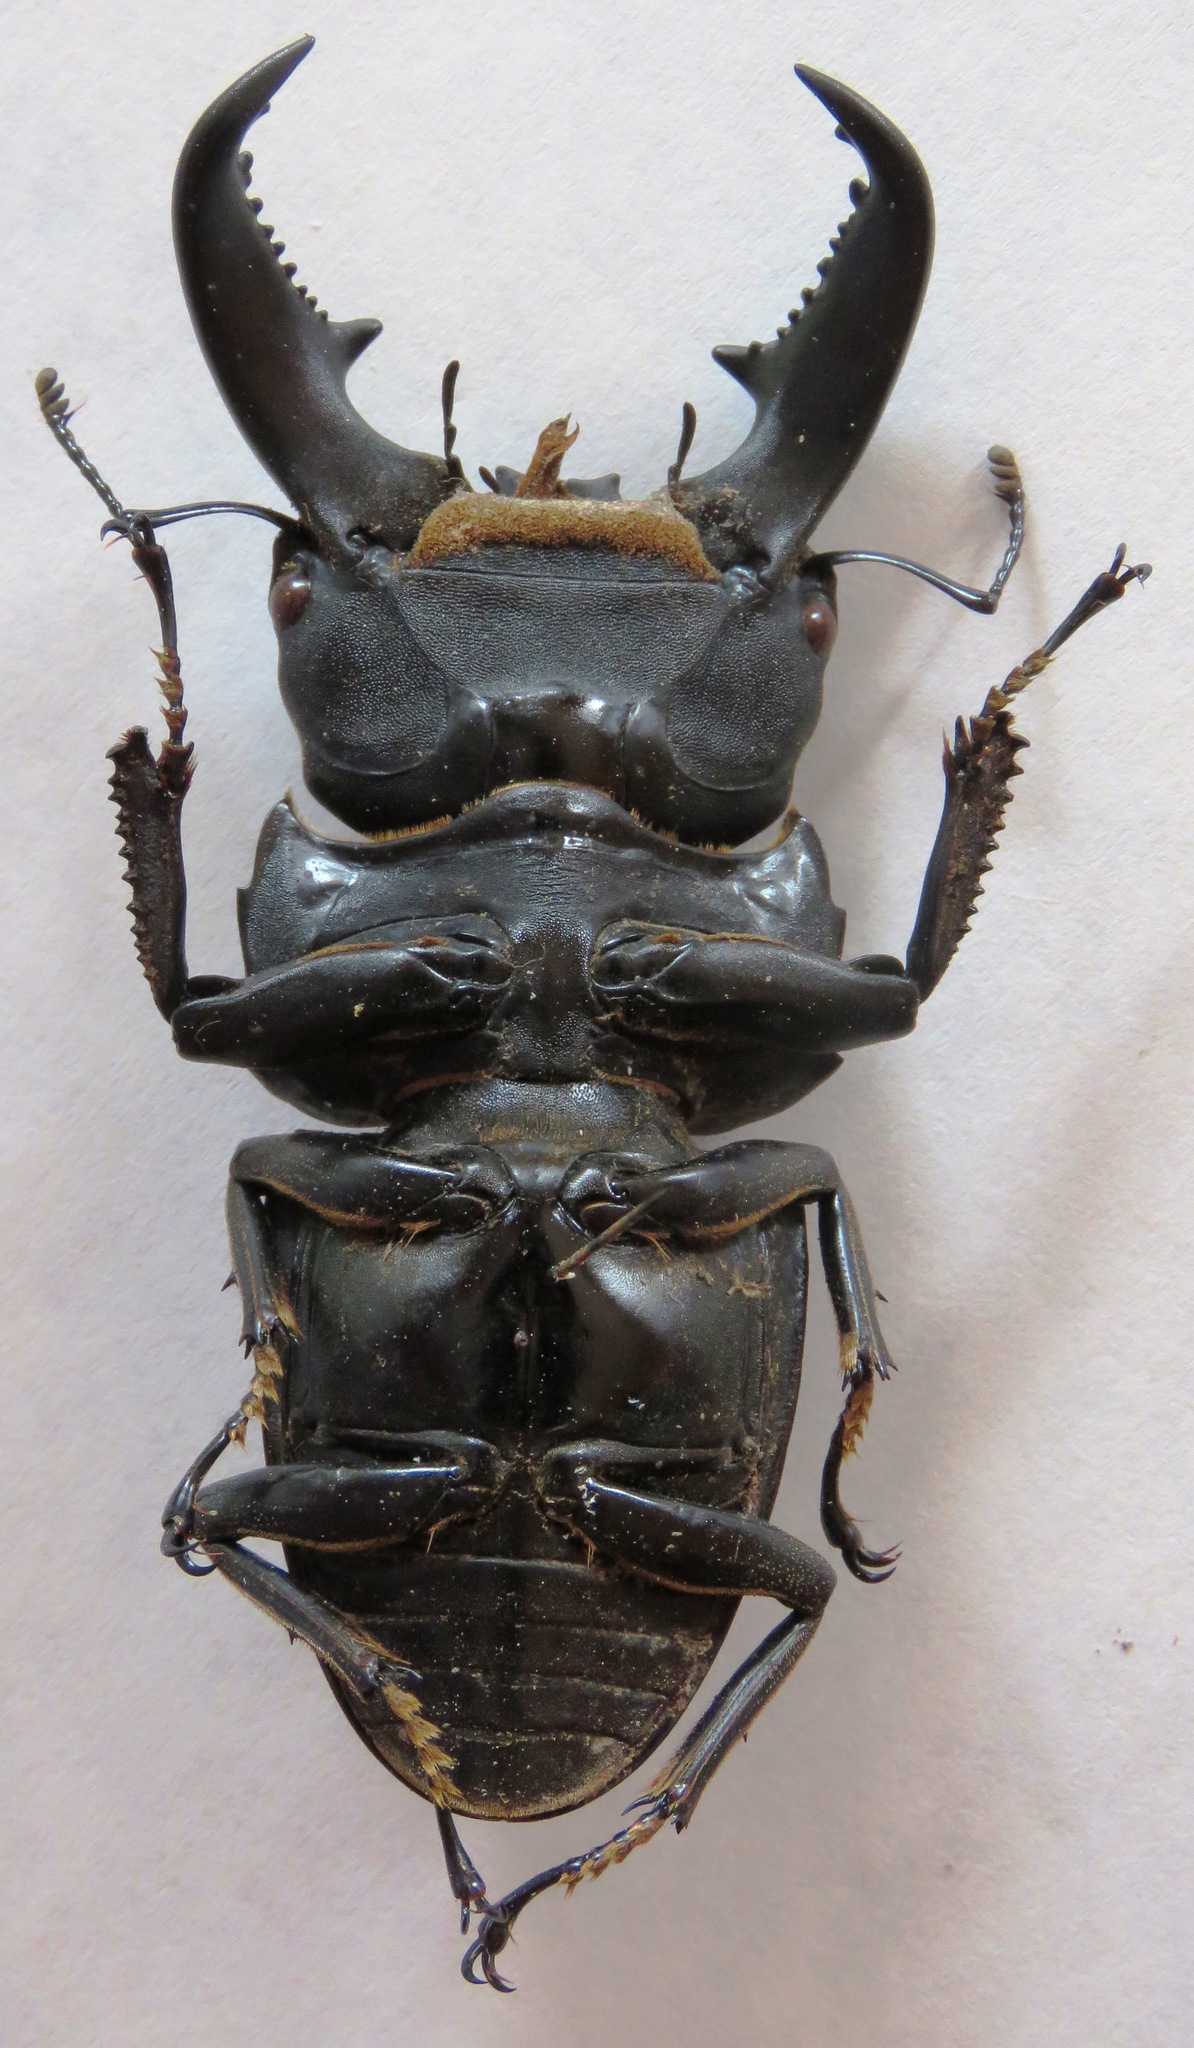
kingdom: Animalia
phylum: Arthropoda
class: Insecta
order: Coleoptera
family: Lucanidae
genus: Serrognathus
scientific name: Serrognathus titanus
